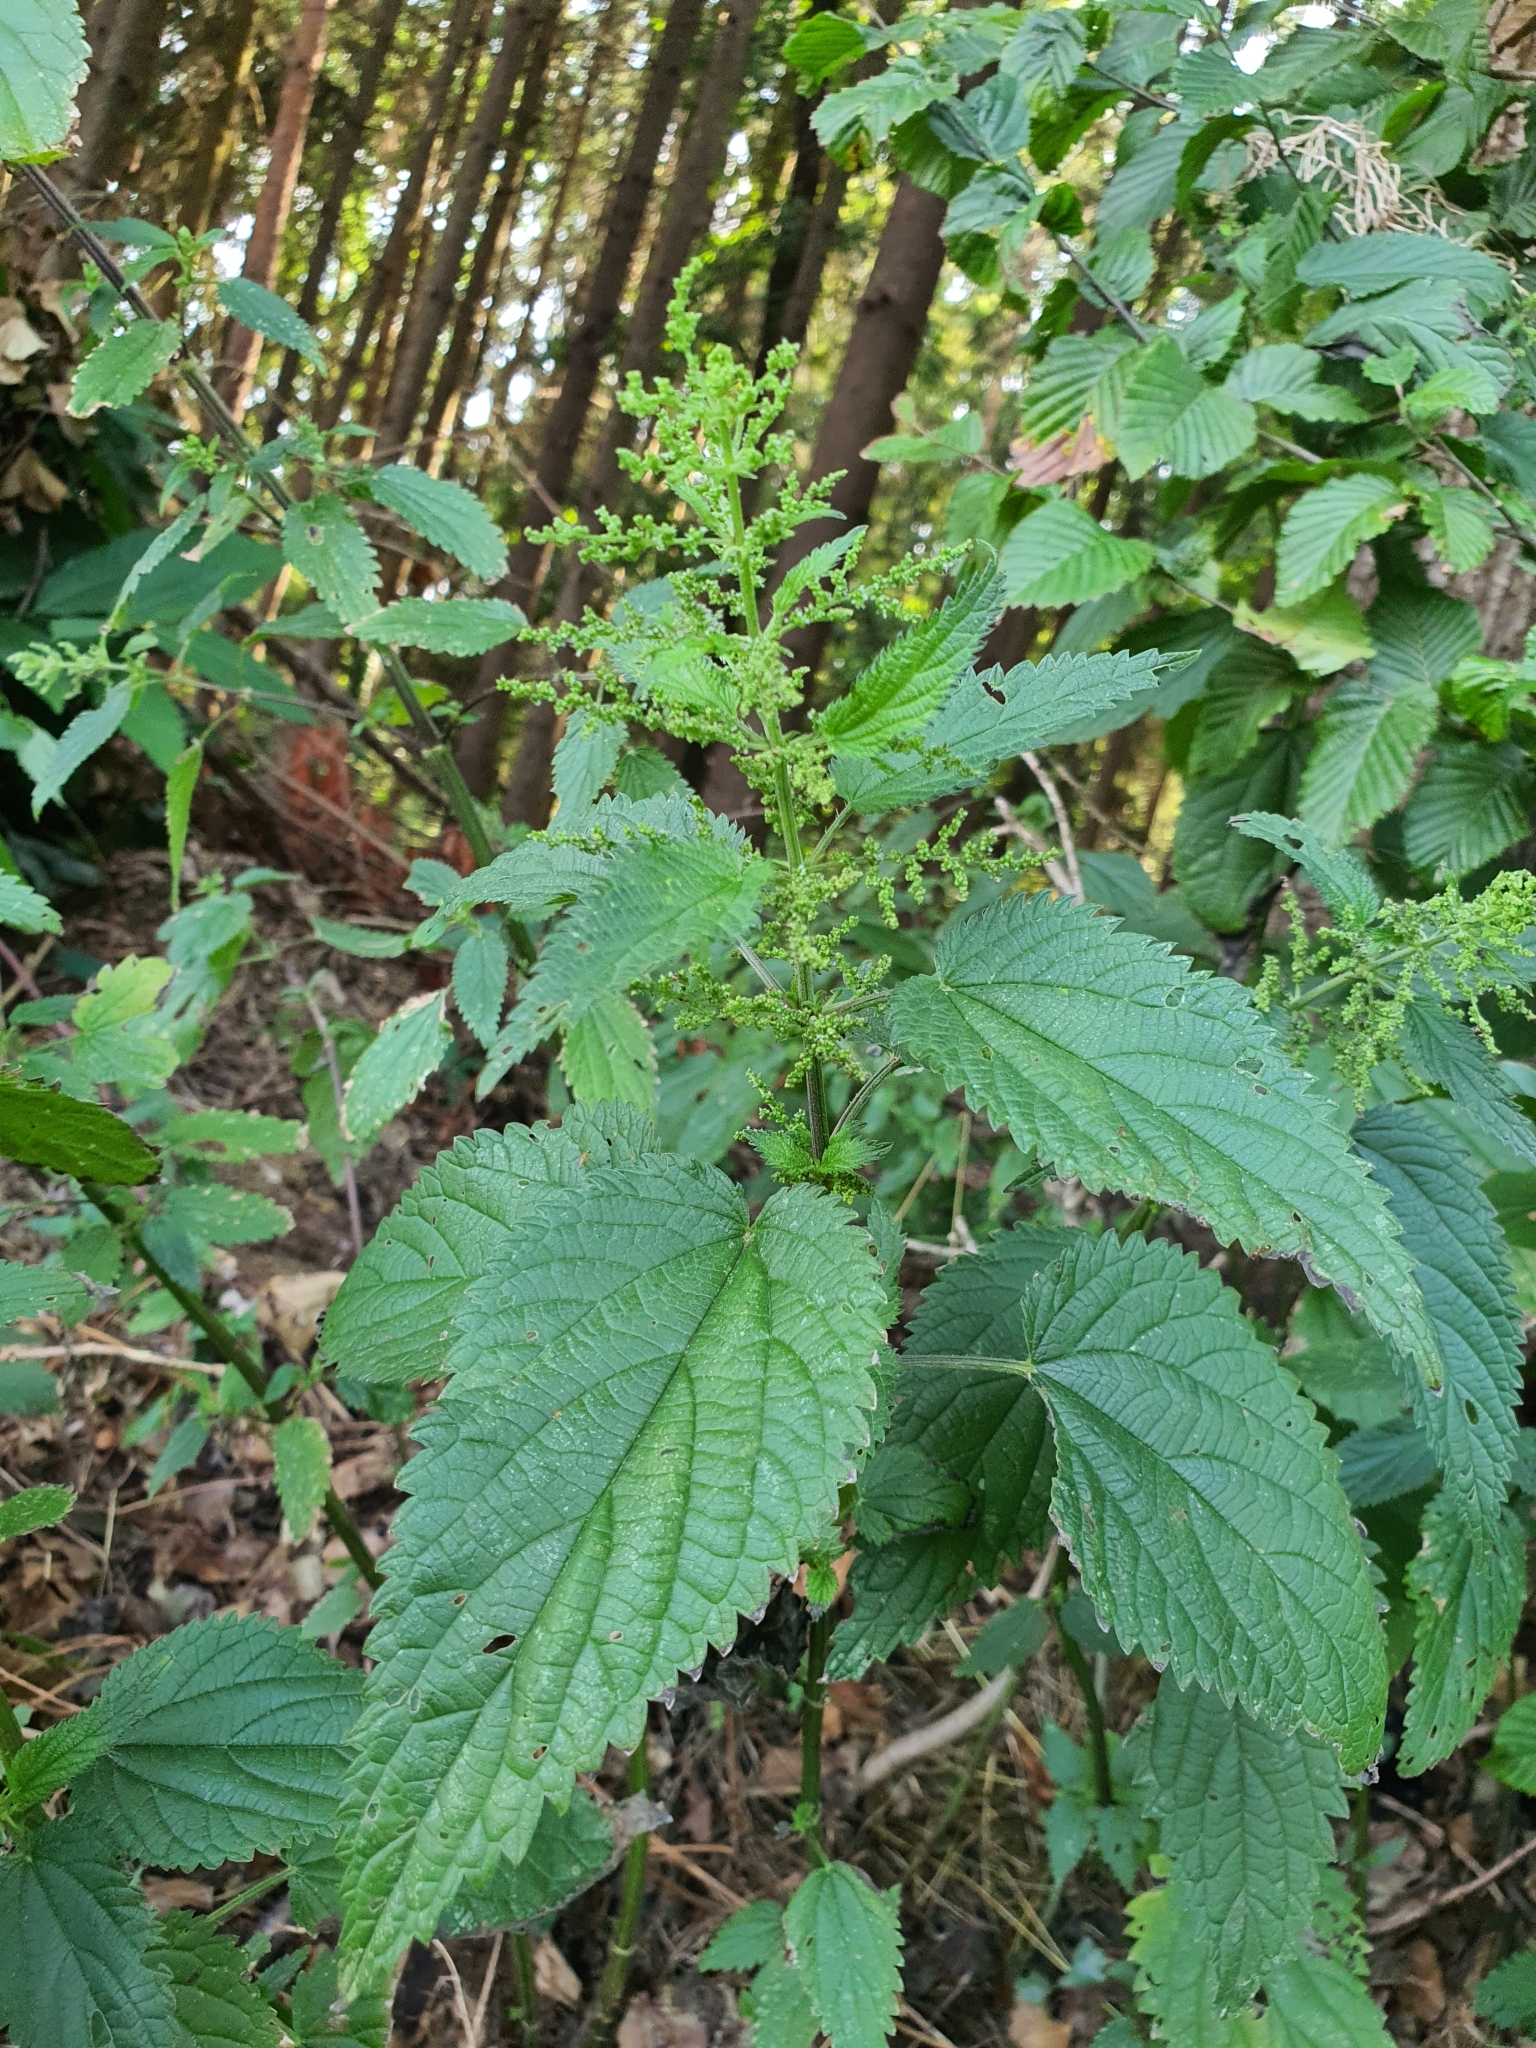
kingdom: Plantae
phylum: Tracheophyta
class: Magnoliopsida
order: Rosales
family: Urticaceae
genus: Urtica
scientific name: Urtica dioica
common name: Common nettle
